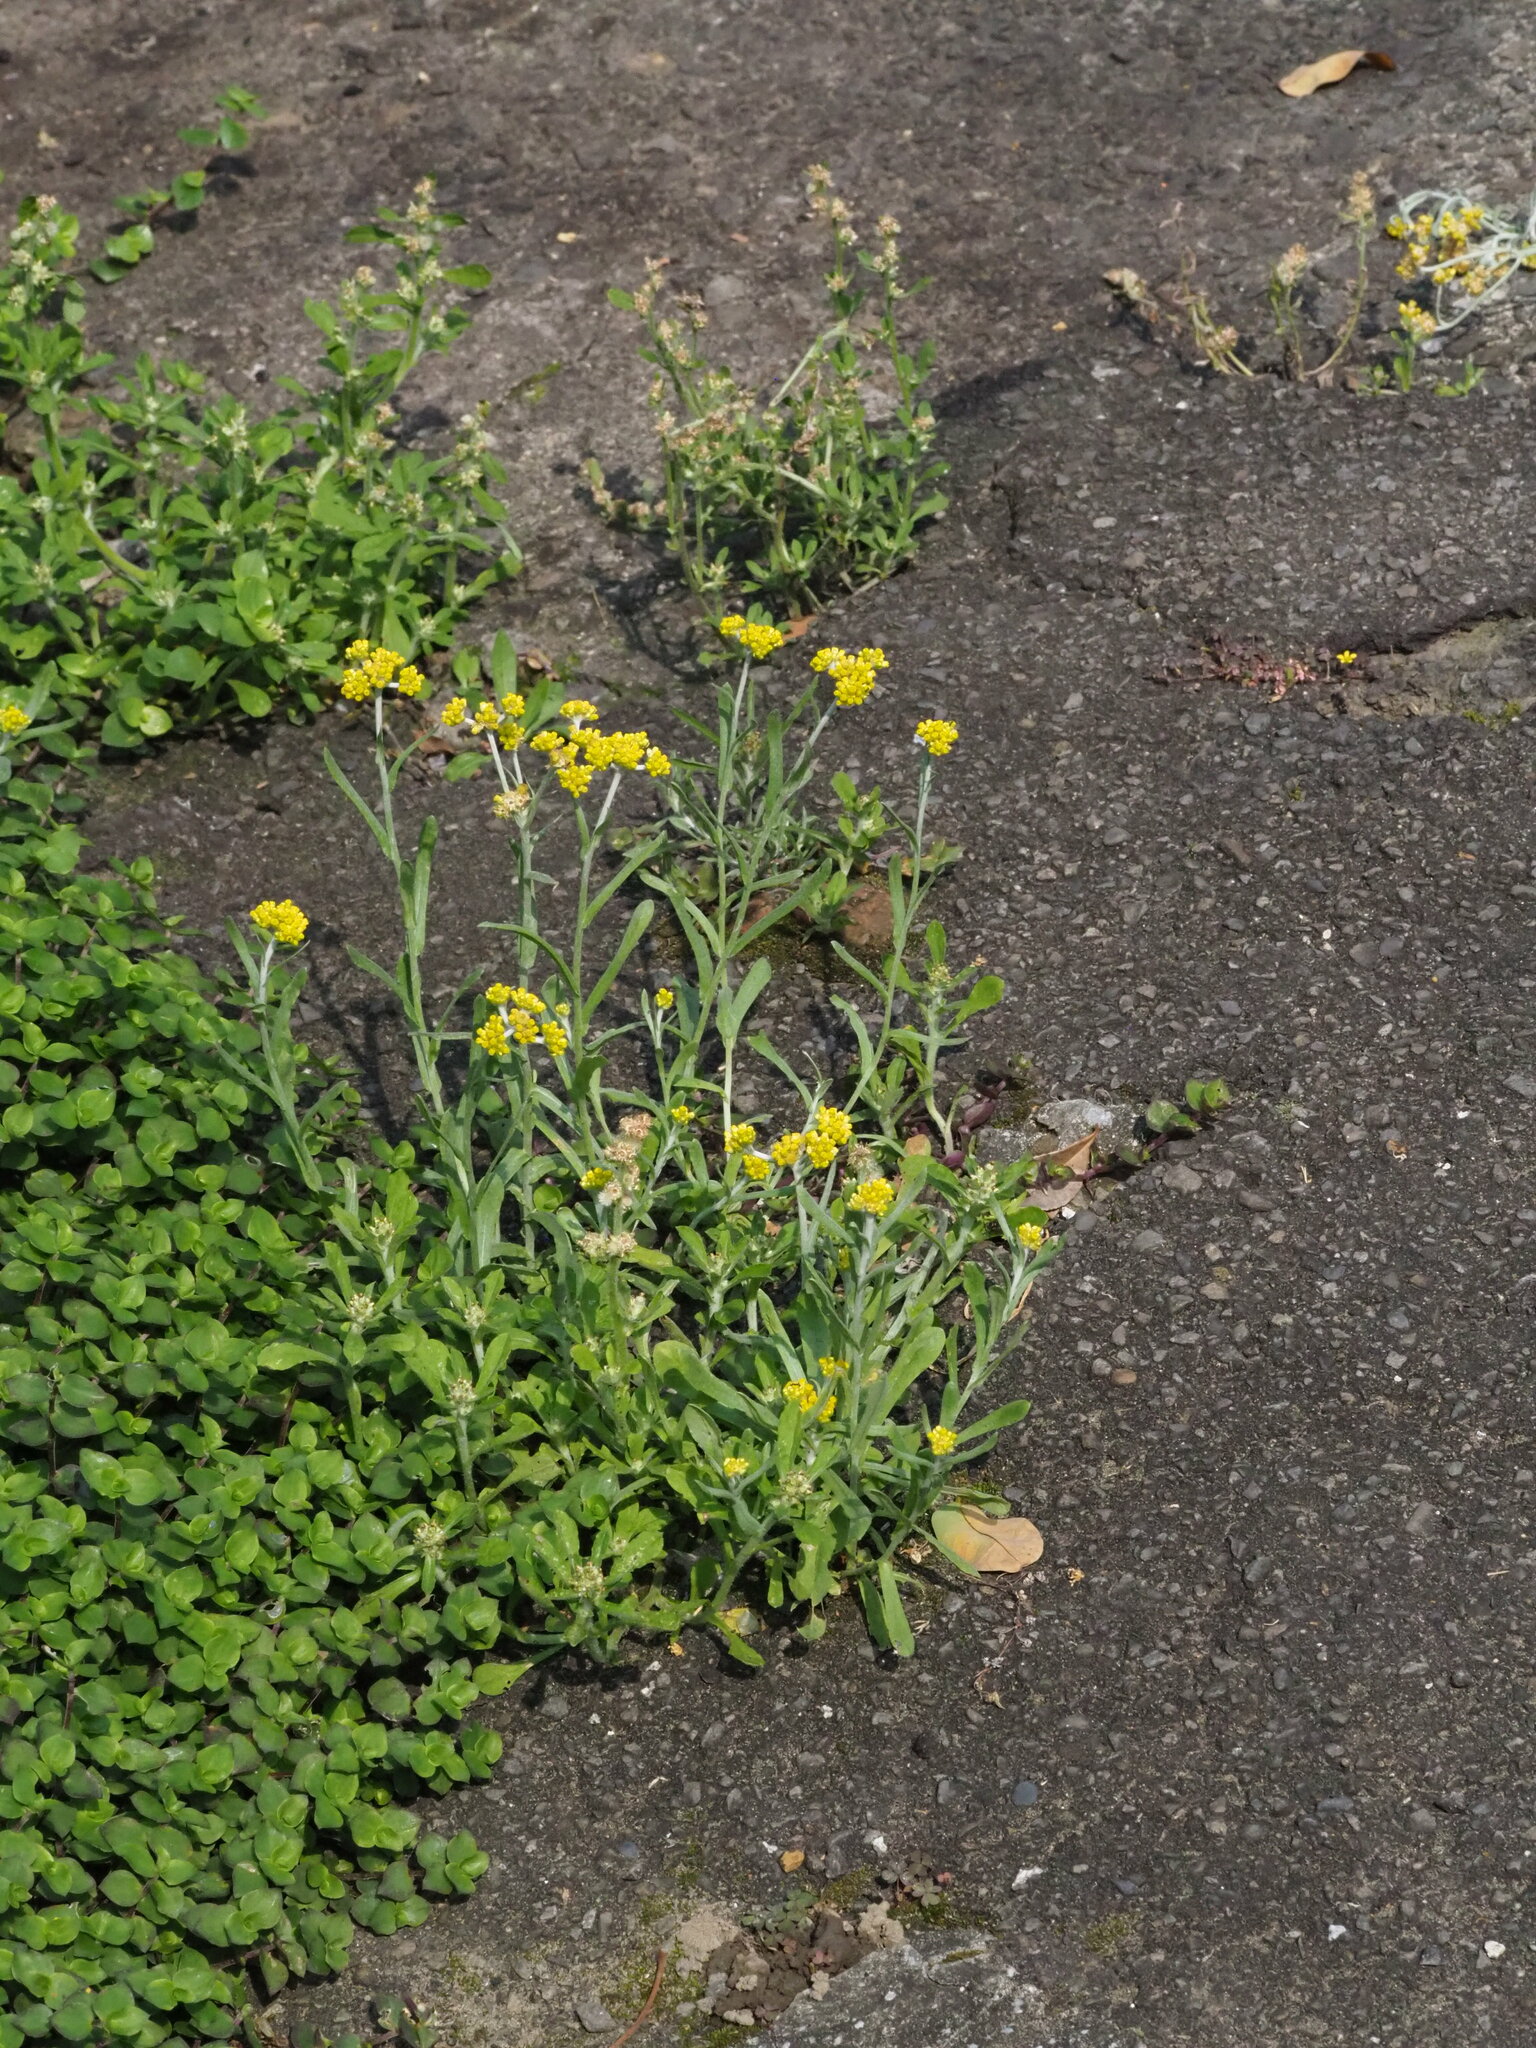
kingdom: Plantae
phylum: Tracheophyta
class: Magnoliopsida
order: Asterales
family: Asteraceae
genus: Pseudognaphalium
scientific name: Pseudognaphalium affine
